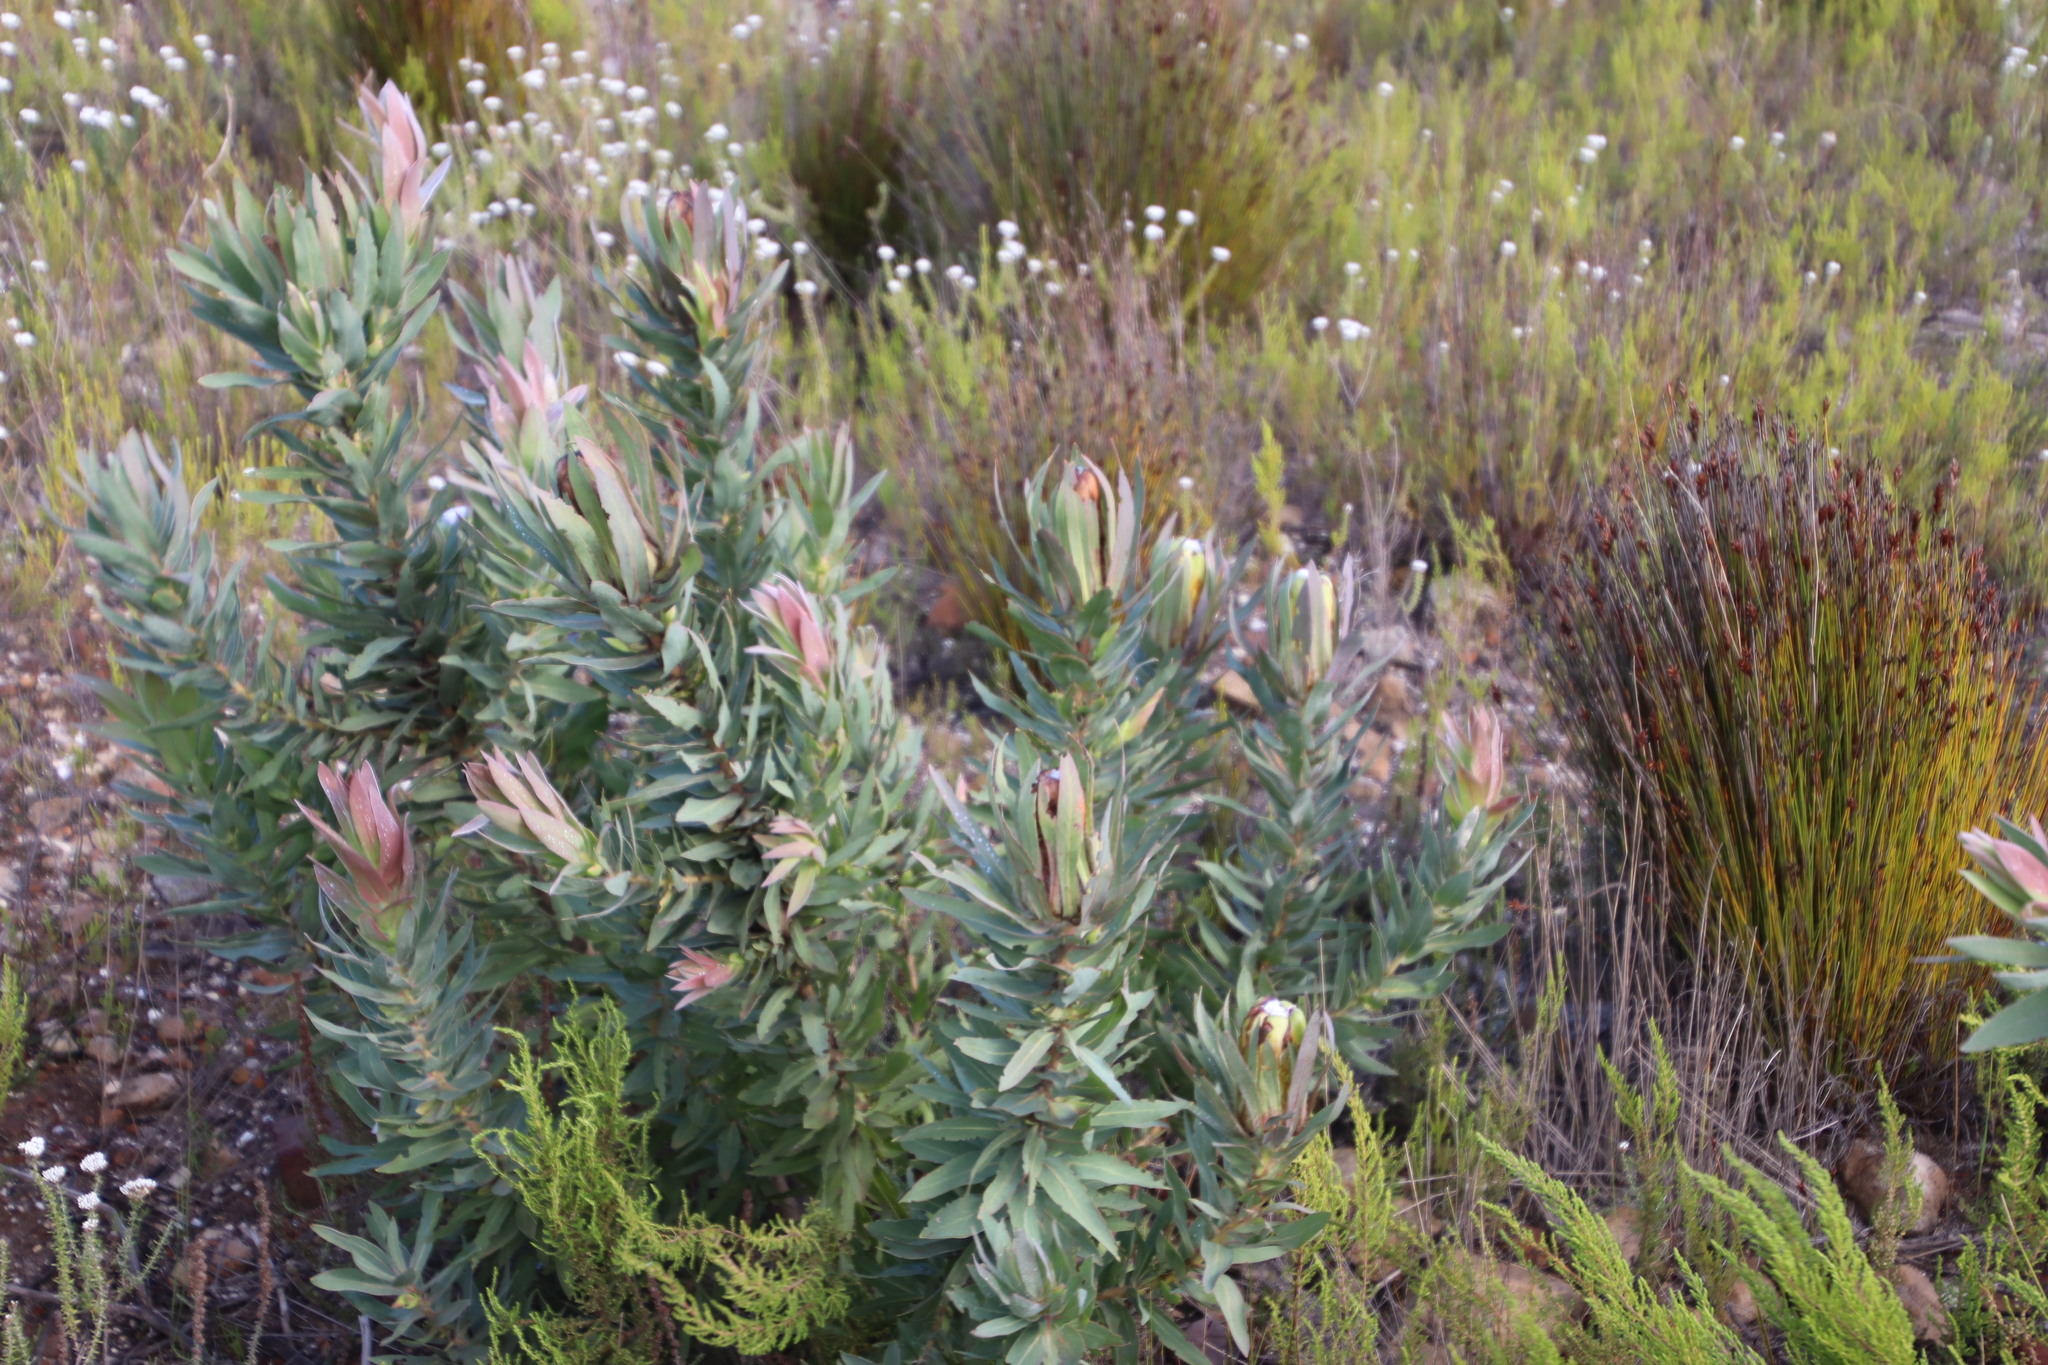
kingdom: Plantae
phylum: Tracheophyta
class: Magnoliopsida
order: Proteales
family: Proteaceae
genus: Protea
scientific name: Protea coronata
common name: Green sugarbush
